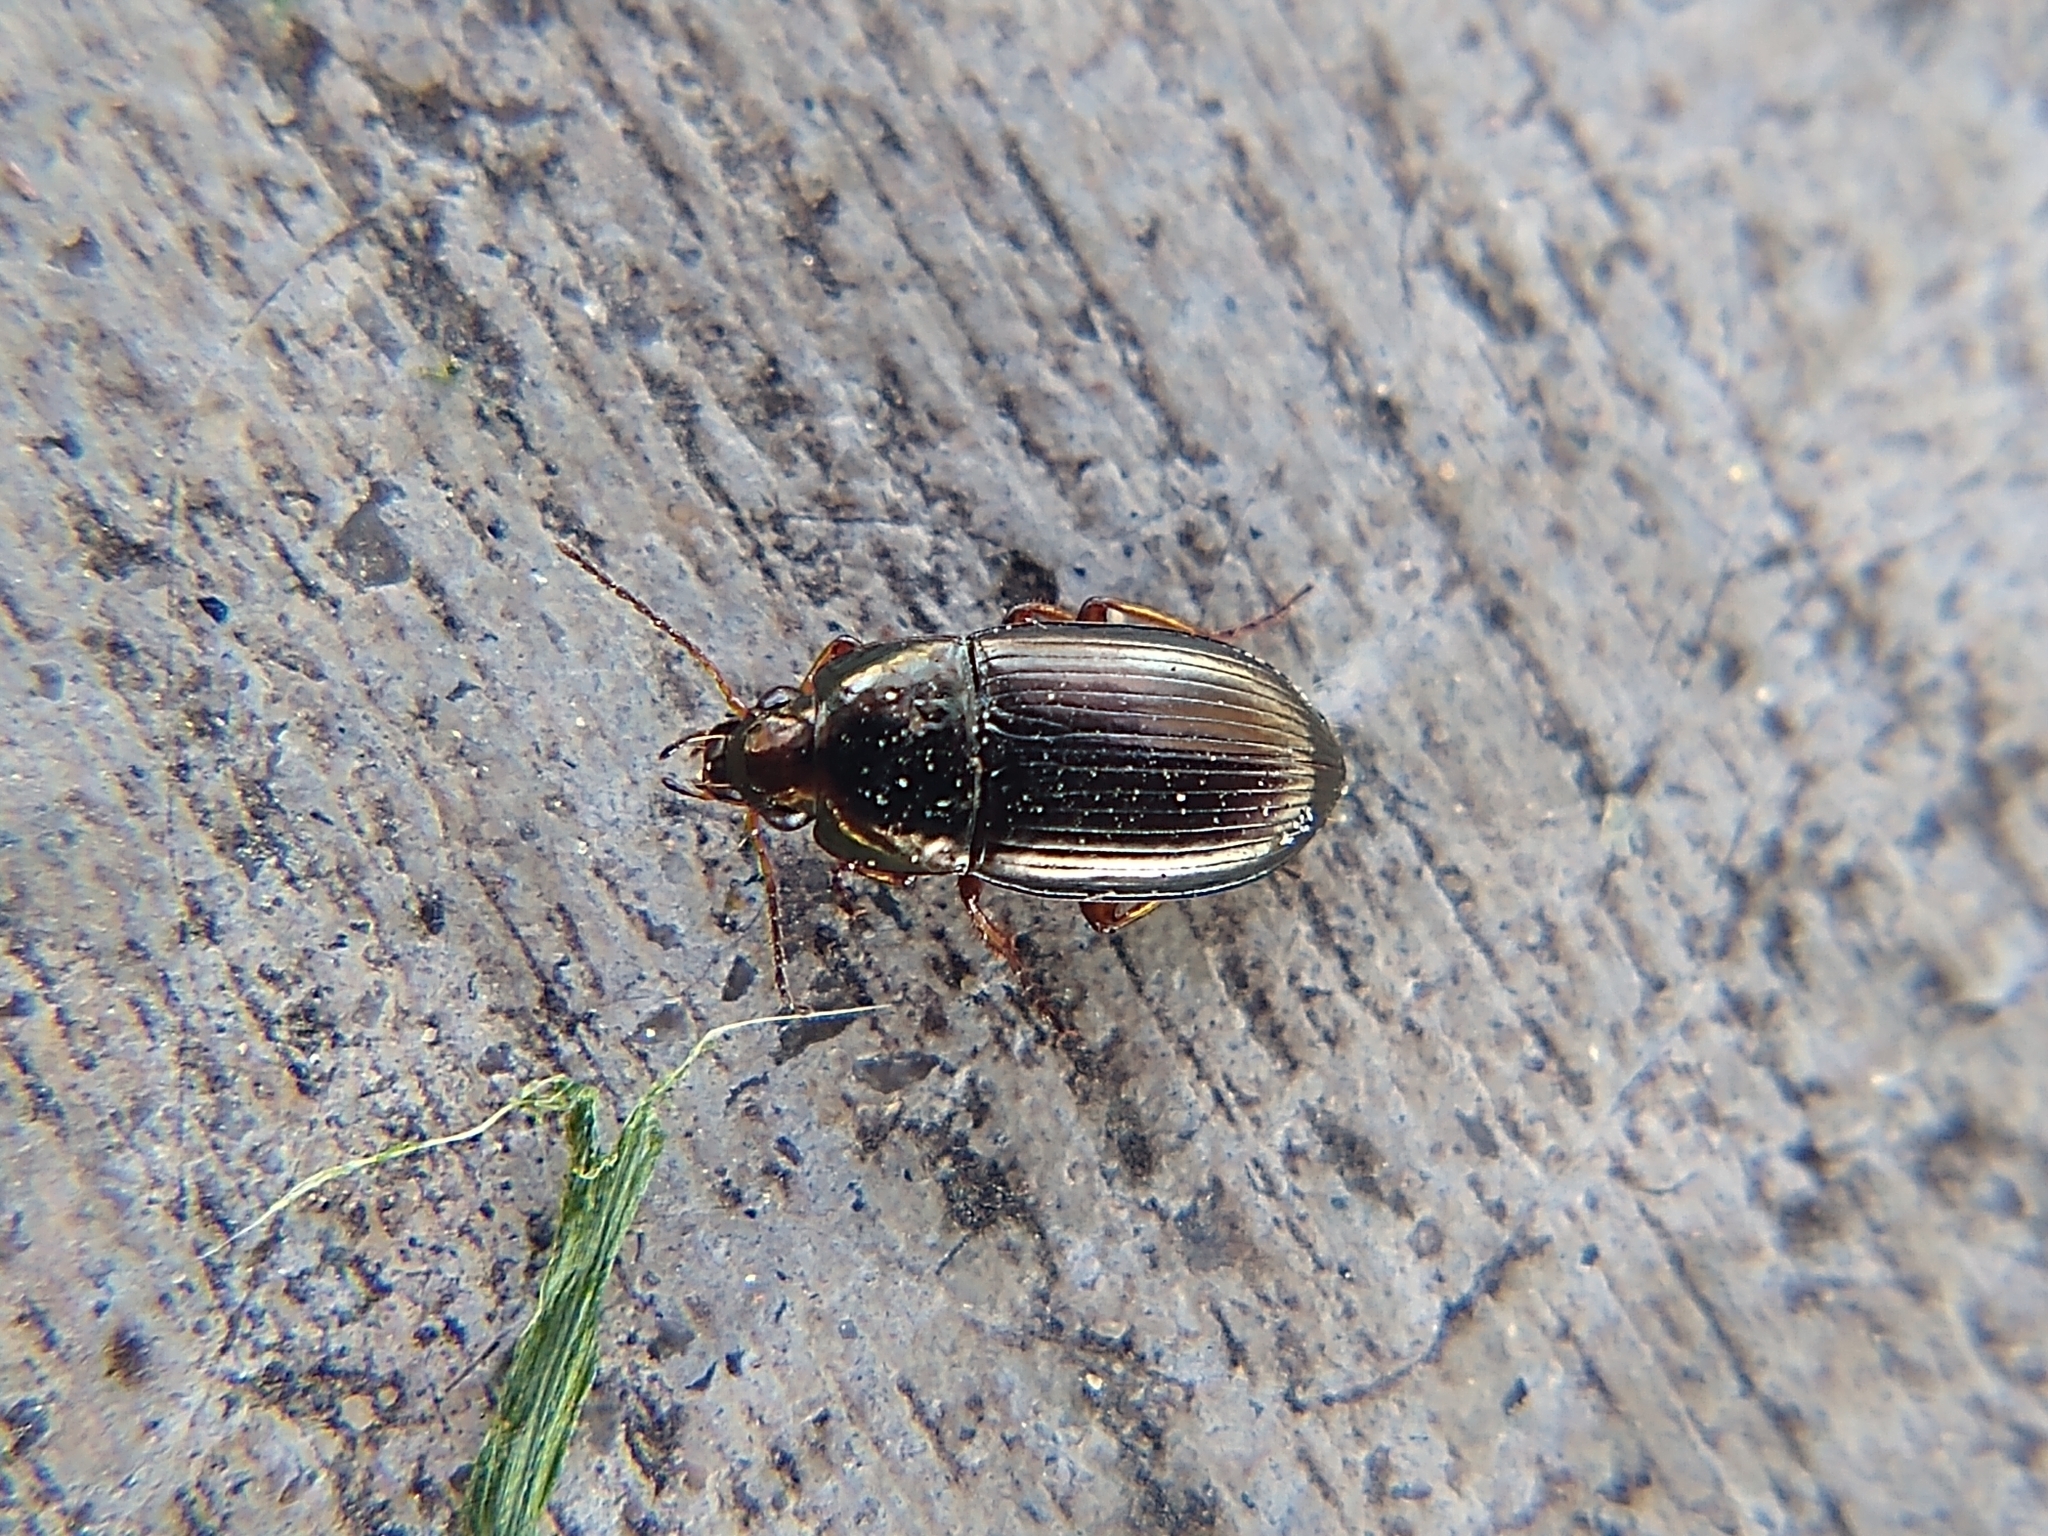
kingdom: Animalia
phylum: Arthropoda
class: Insecta
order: Coleoptera
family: Carabidae
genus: Amara
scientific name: Amara familiaris
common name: Familiar harp round beetle
